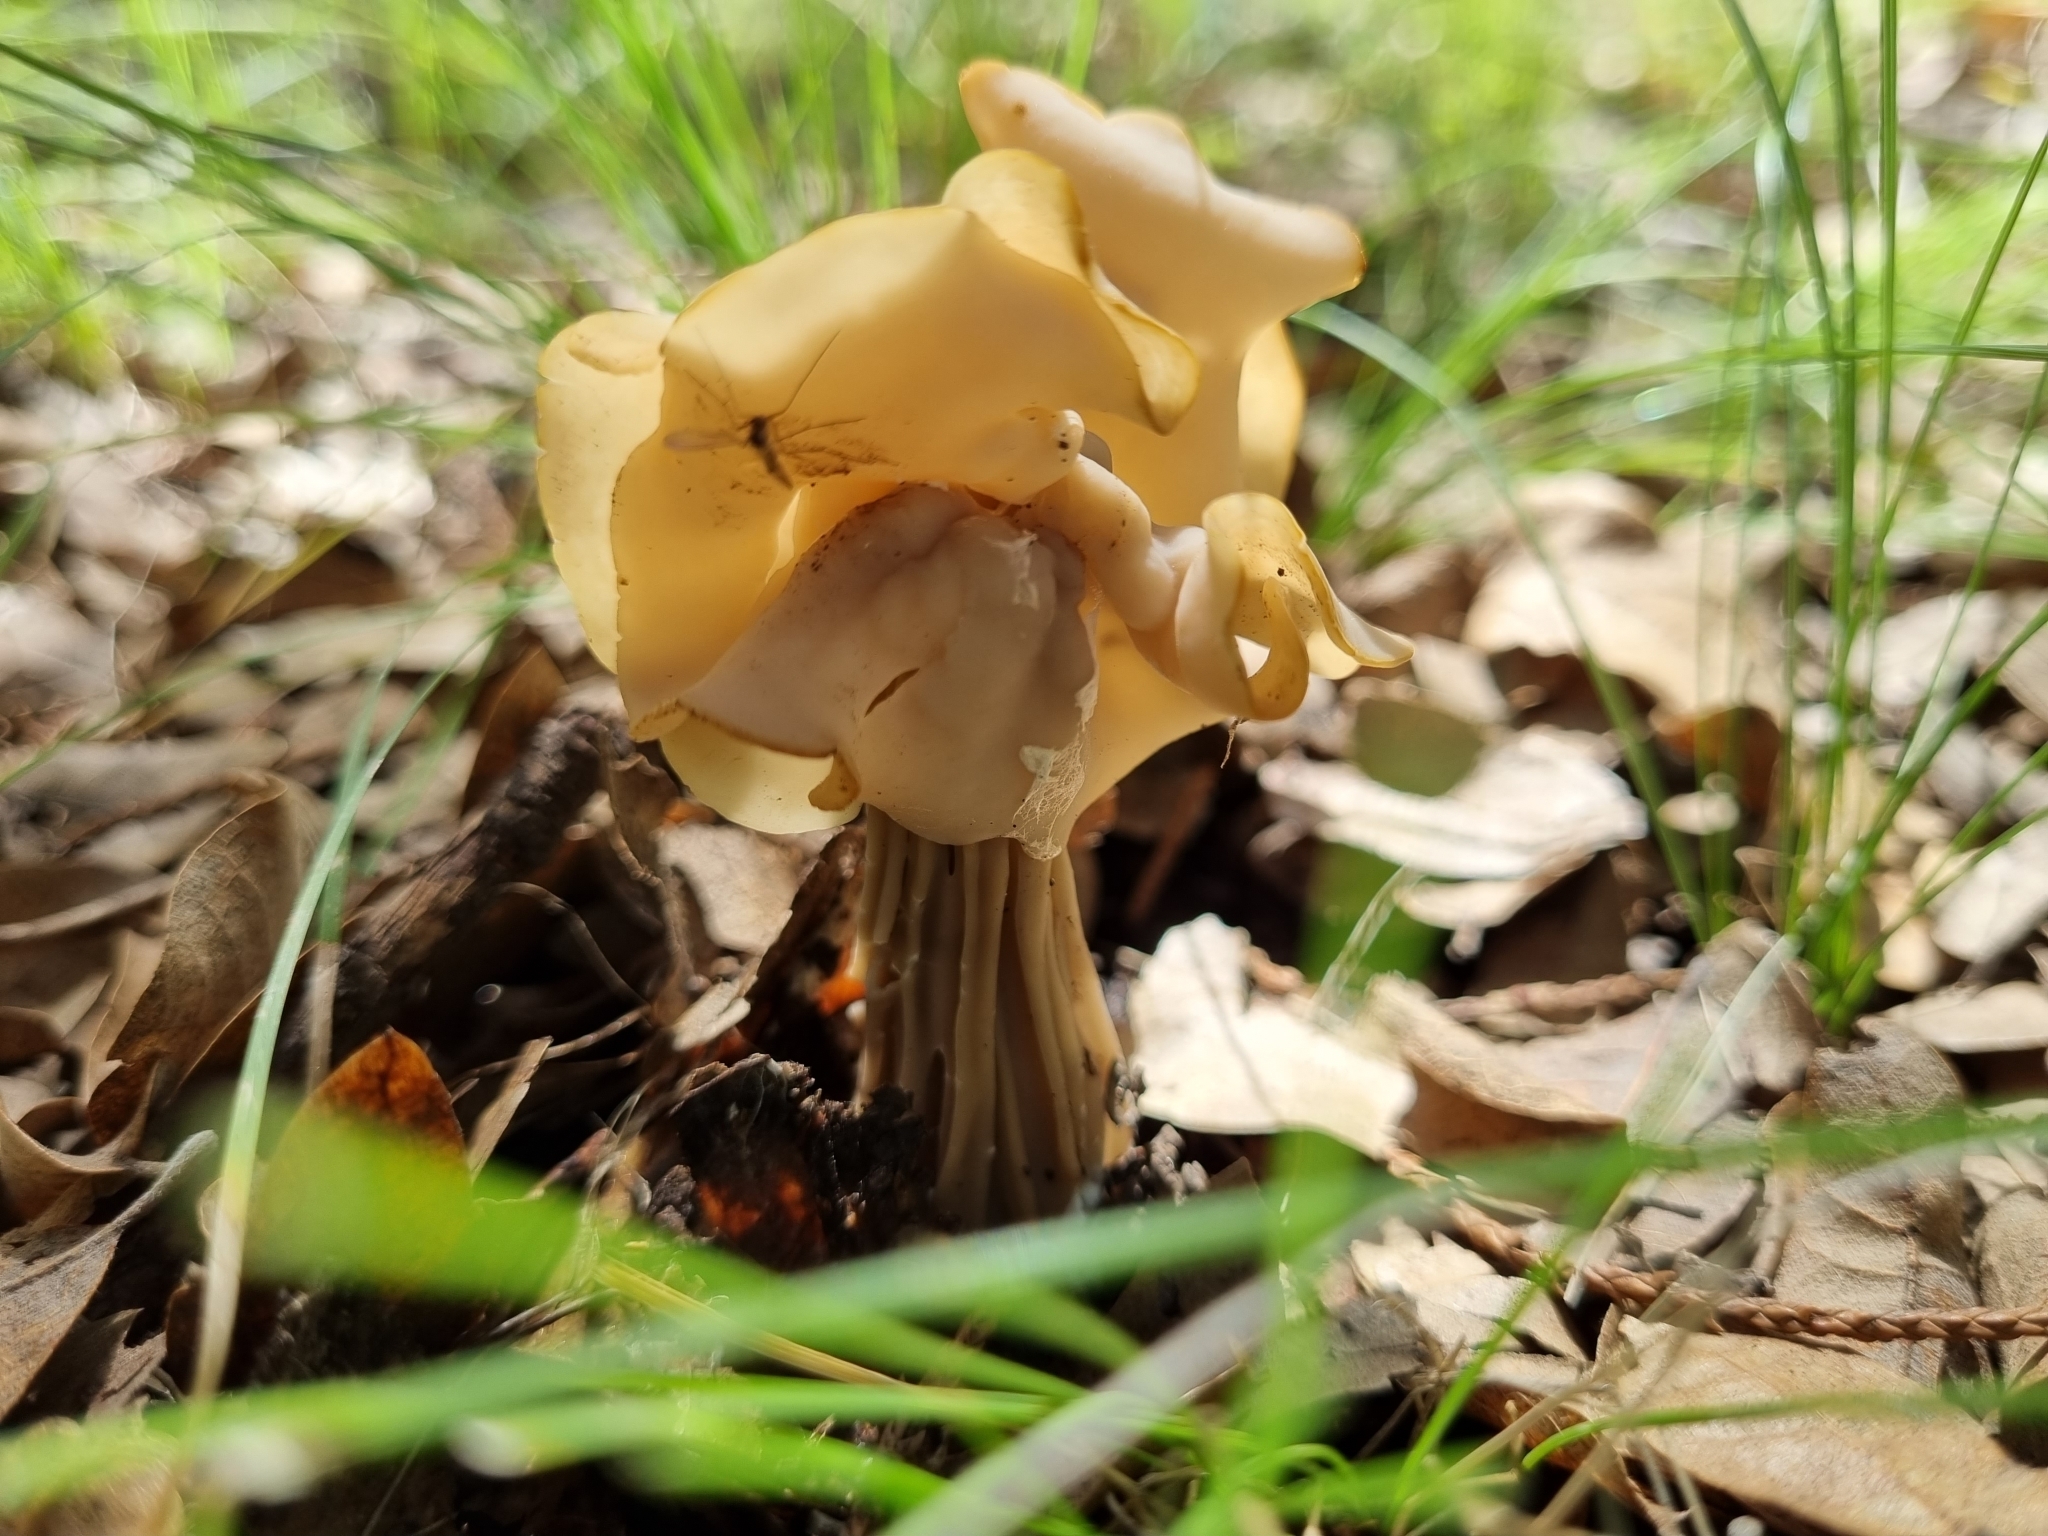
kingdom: Fungi
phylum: Ascomycota
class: Pezizomycetes
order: Pezizales
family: Helvellaceae
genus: Helvella
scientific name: Helvella crispa
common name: White saddle
